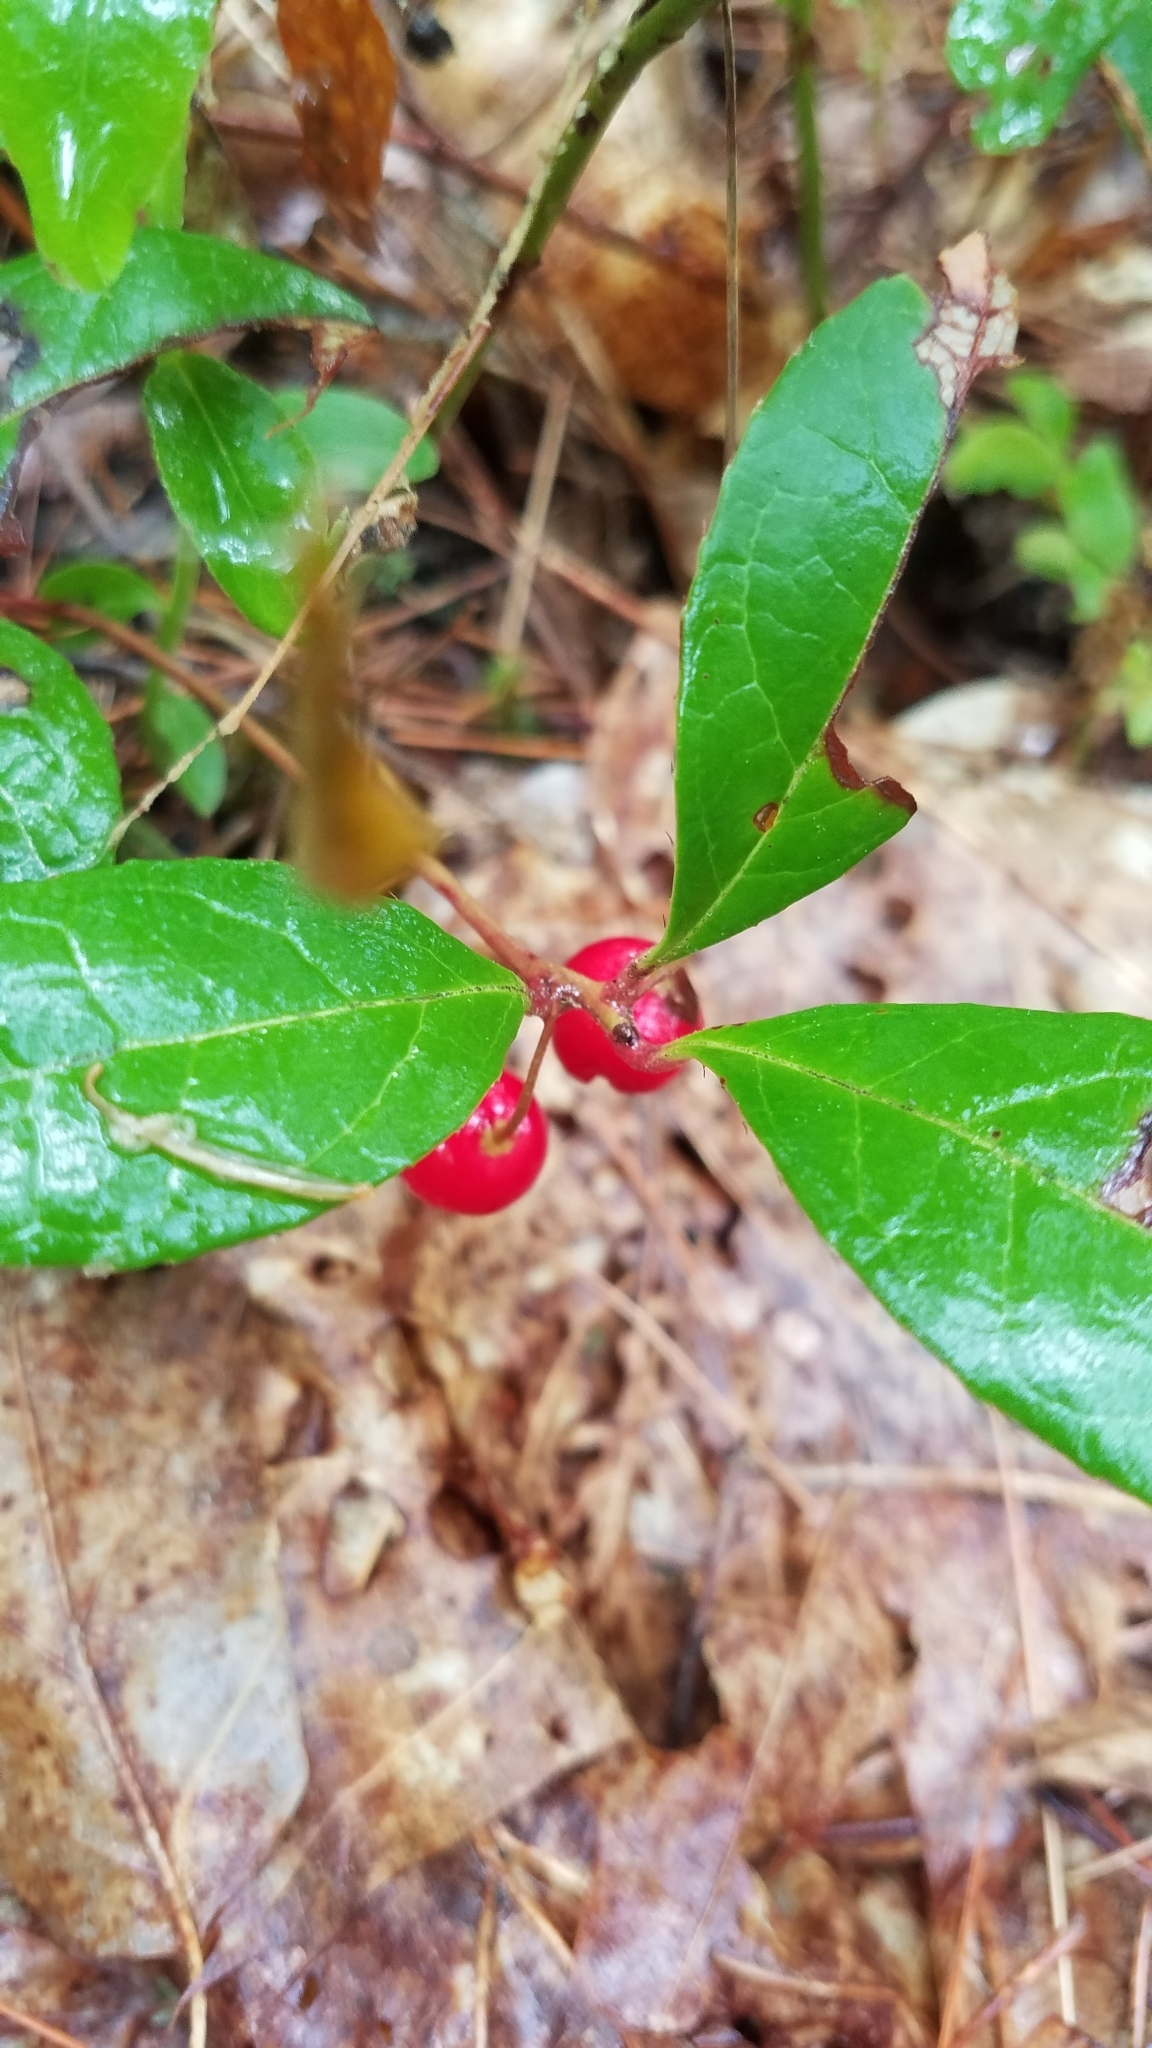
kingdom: Plantae
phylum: Tracheophyta
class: Magnoliopsida
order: Ericales
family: Ericaceae
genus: Gaultheria
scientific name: Gaultheria procumbens
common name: Checkerberry
